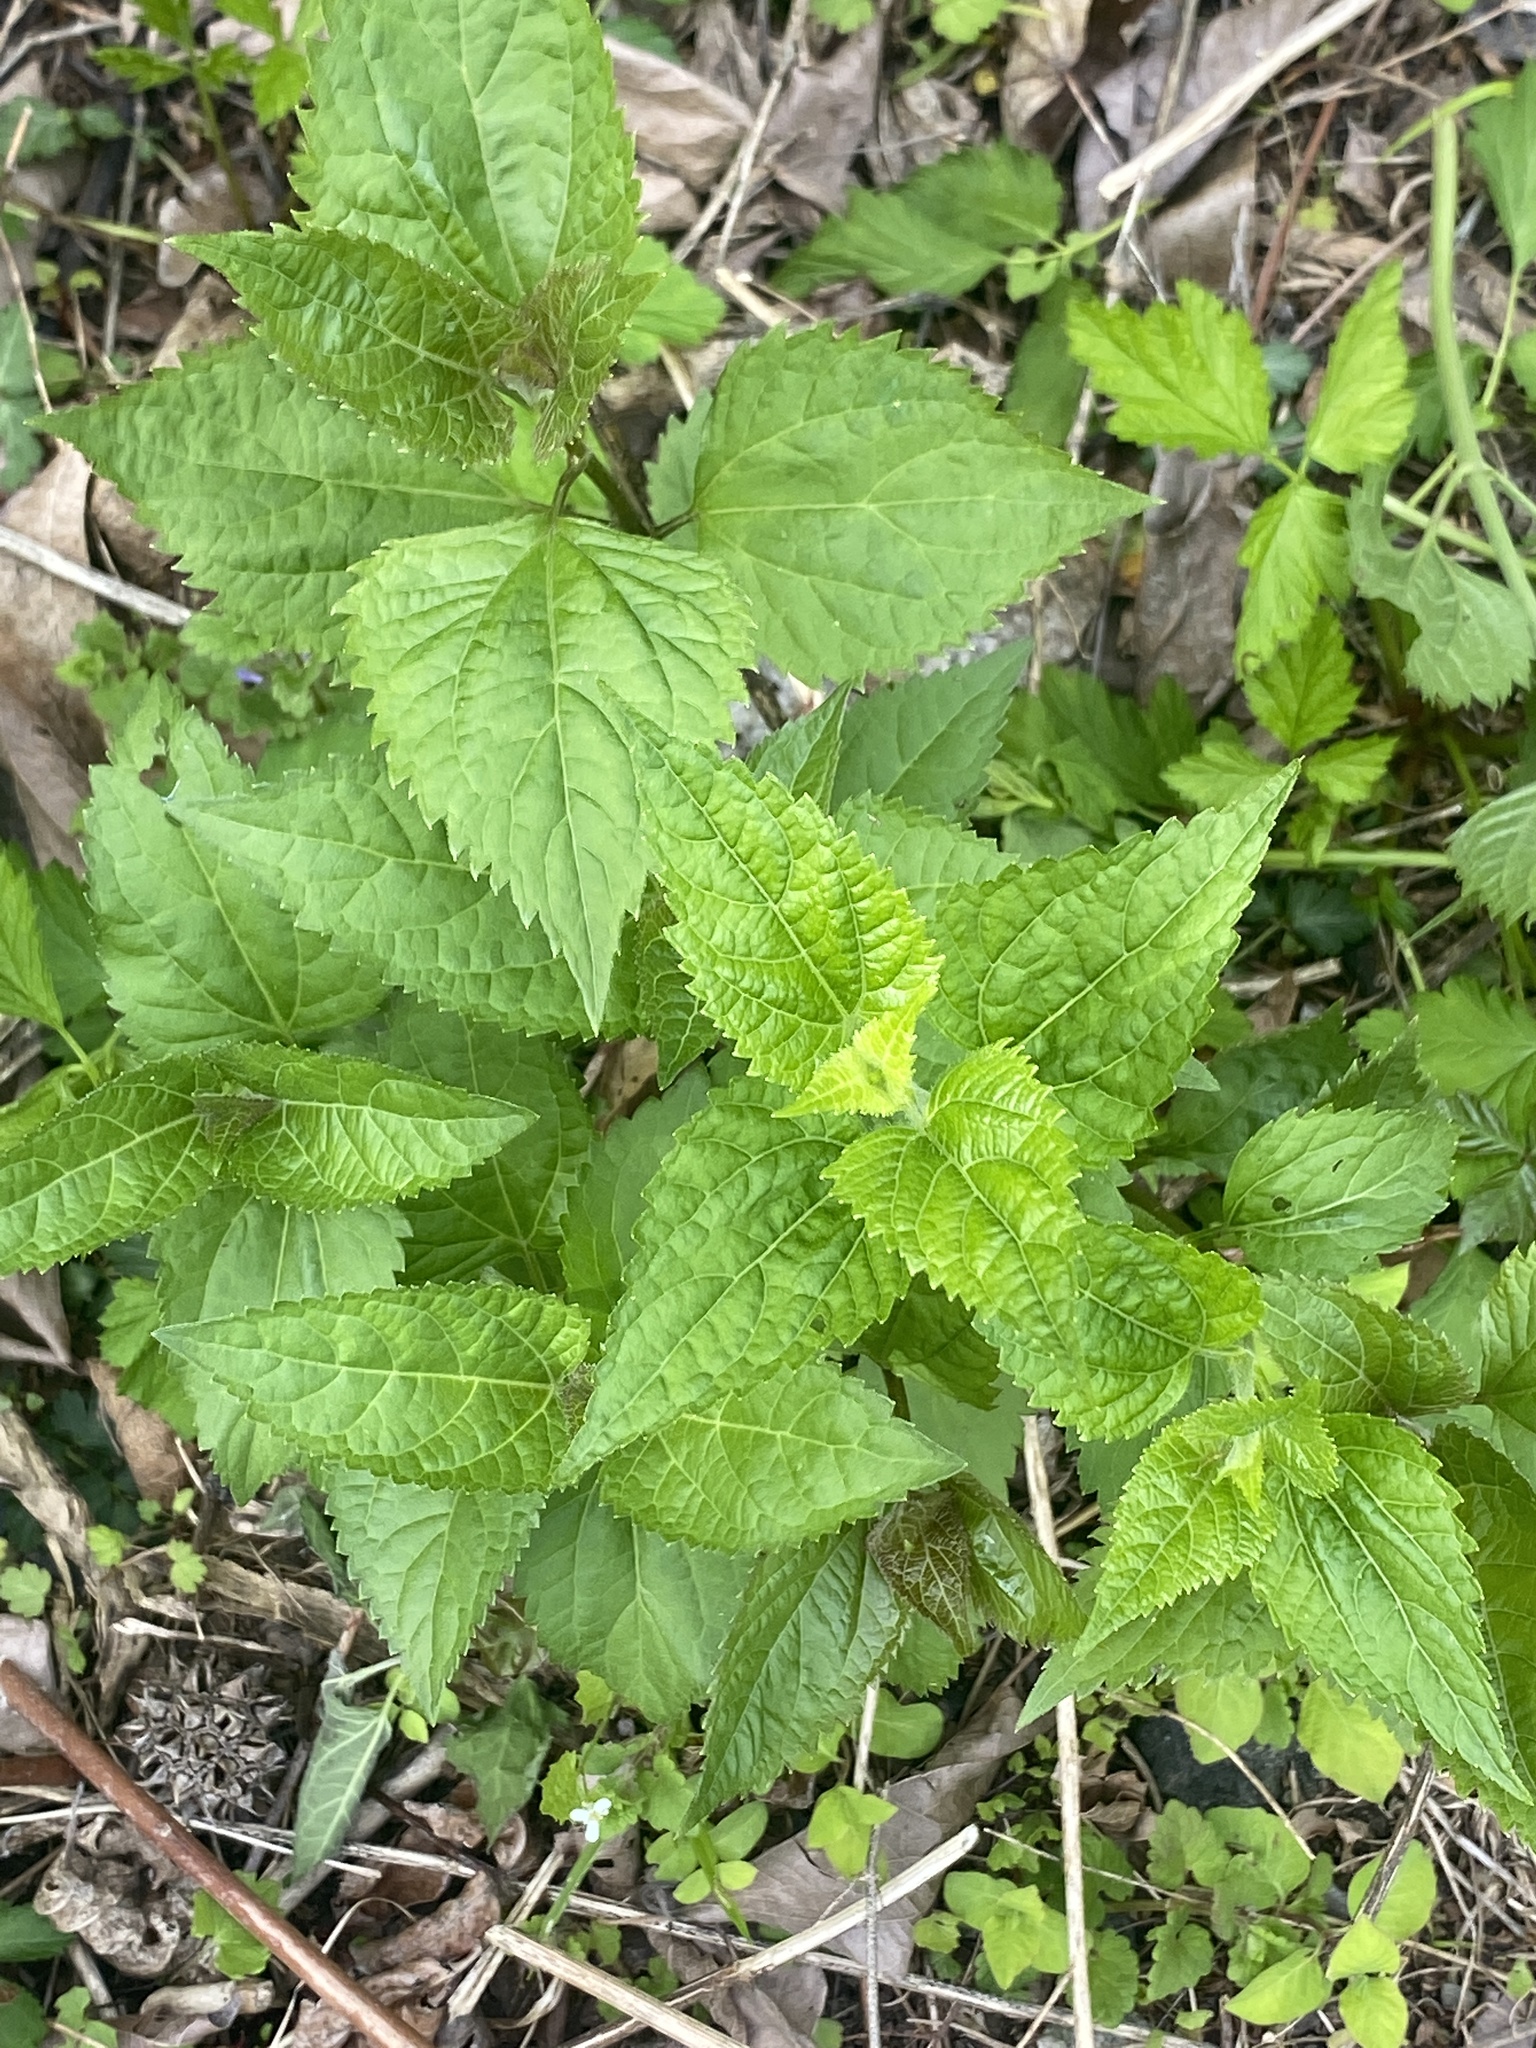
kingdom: Plantae
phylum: Tracheophyta
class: Magnoliopsida
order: Asterales
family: Asteraceae
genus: Ageratina
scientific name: Ageratina altissima
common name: White snakeroot
